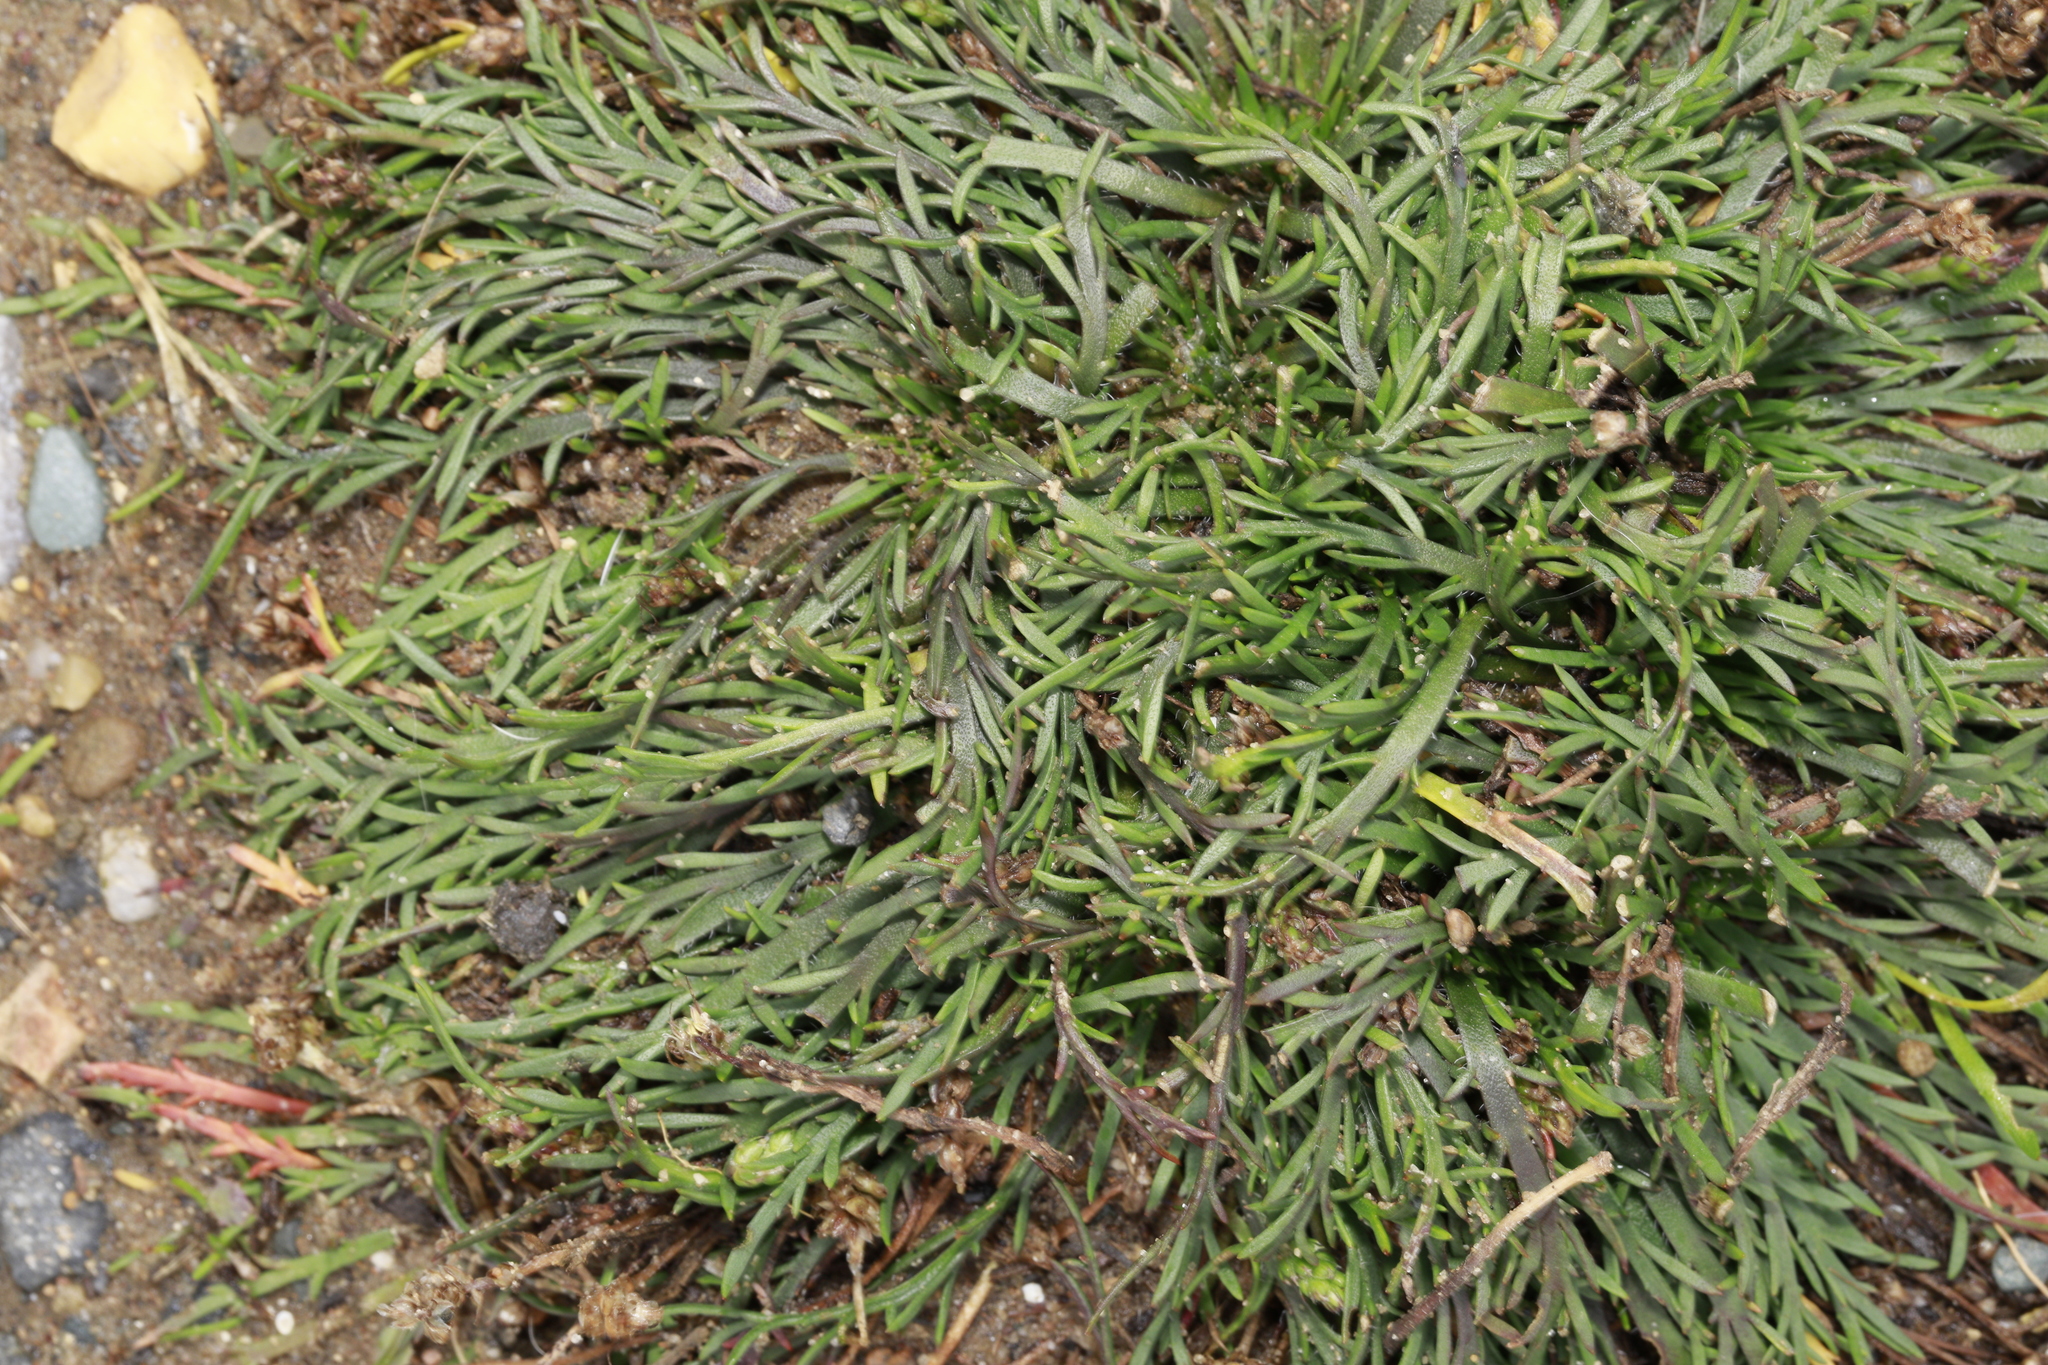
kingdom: Plantae
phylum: Tracheophyta
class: Magnoliopsida
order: Lamiales
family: Plantaginaceae
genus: Plantago
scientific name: Plantago coronopus
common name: Buck's-horn plantain
